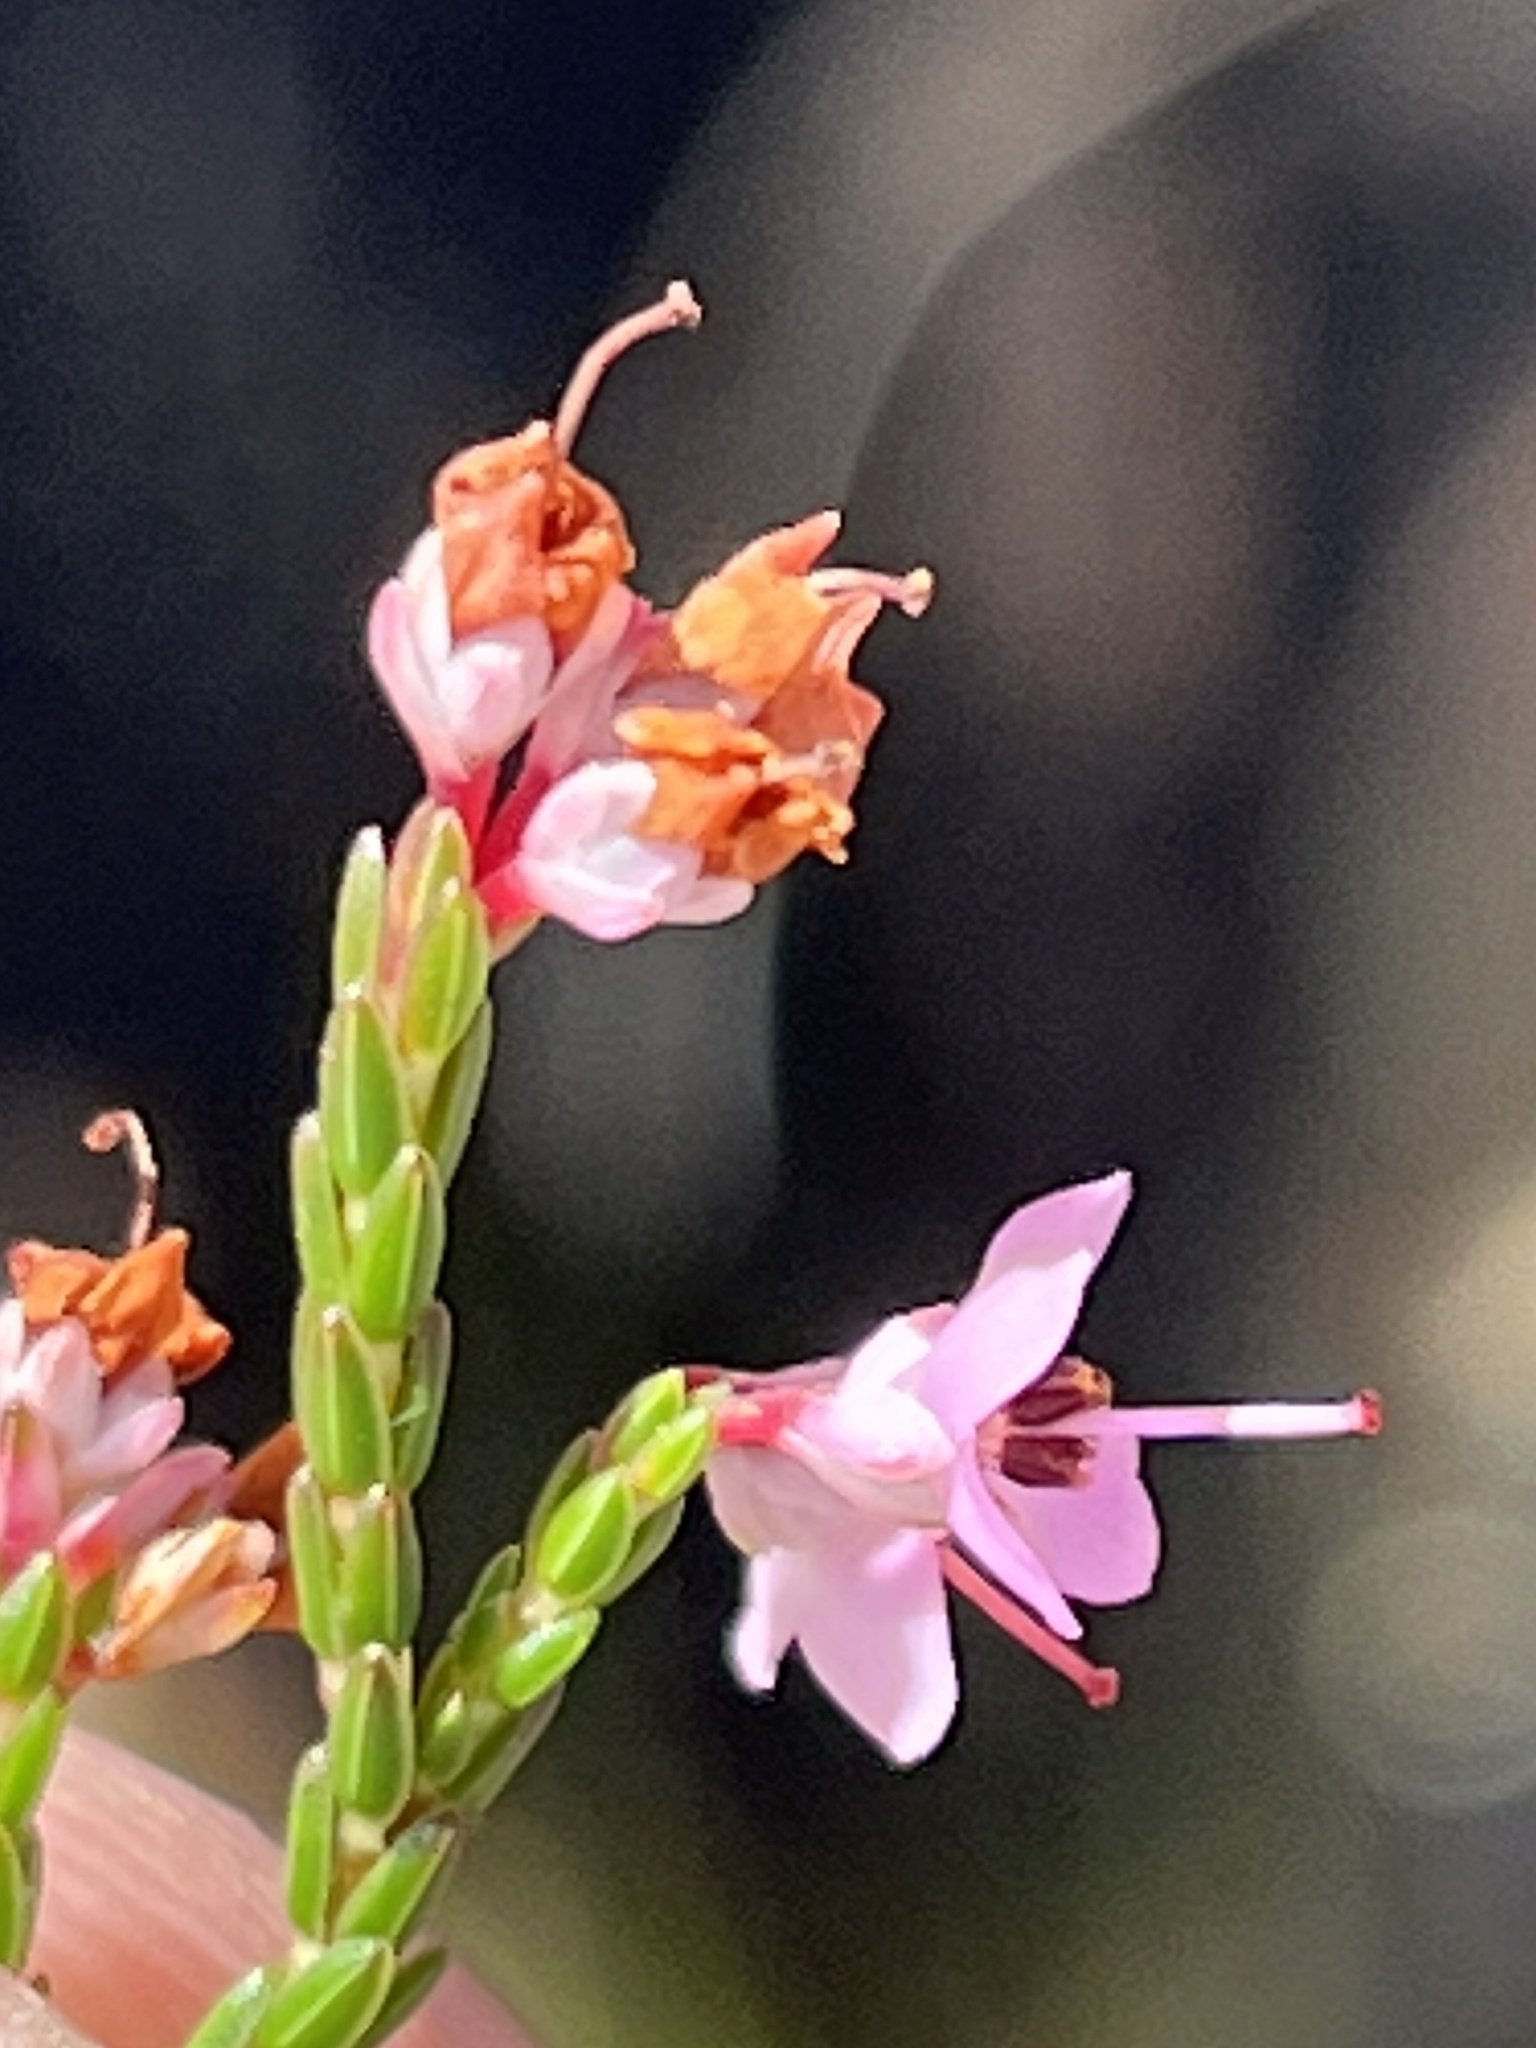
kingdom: Plantae
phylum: Tracheophyta
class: Magnoliopsida
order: Ericales
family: Ericaceae
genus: Erica
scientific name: Erica humifusa
